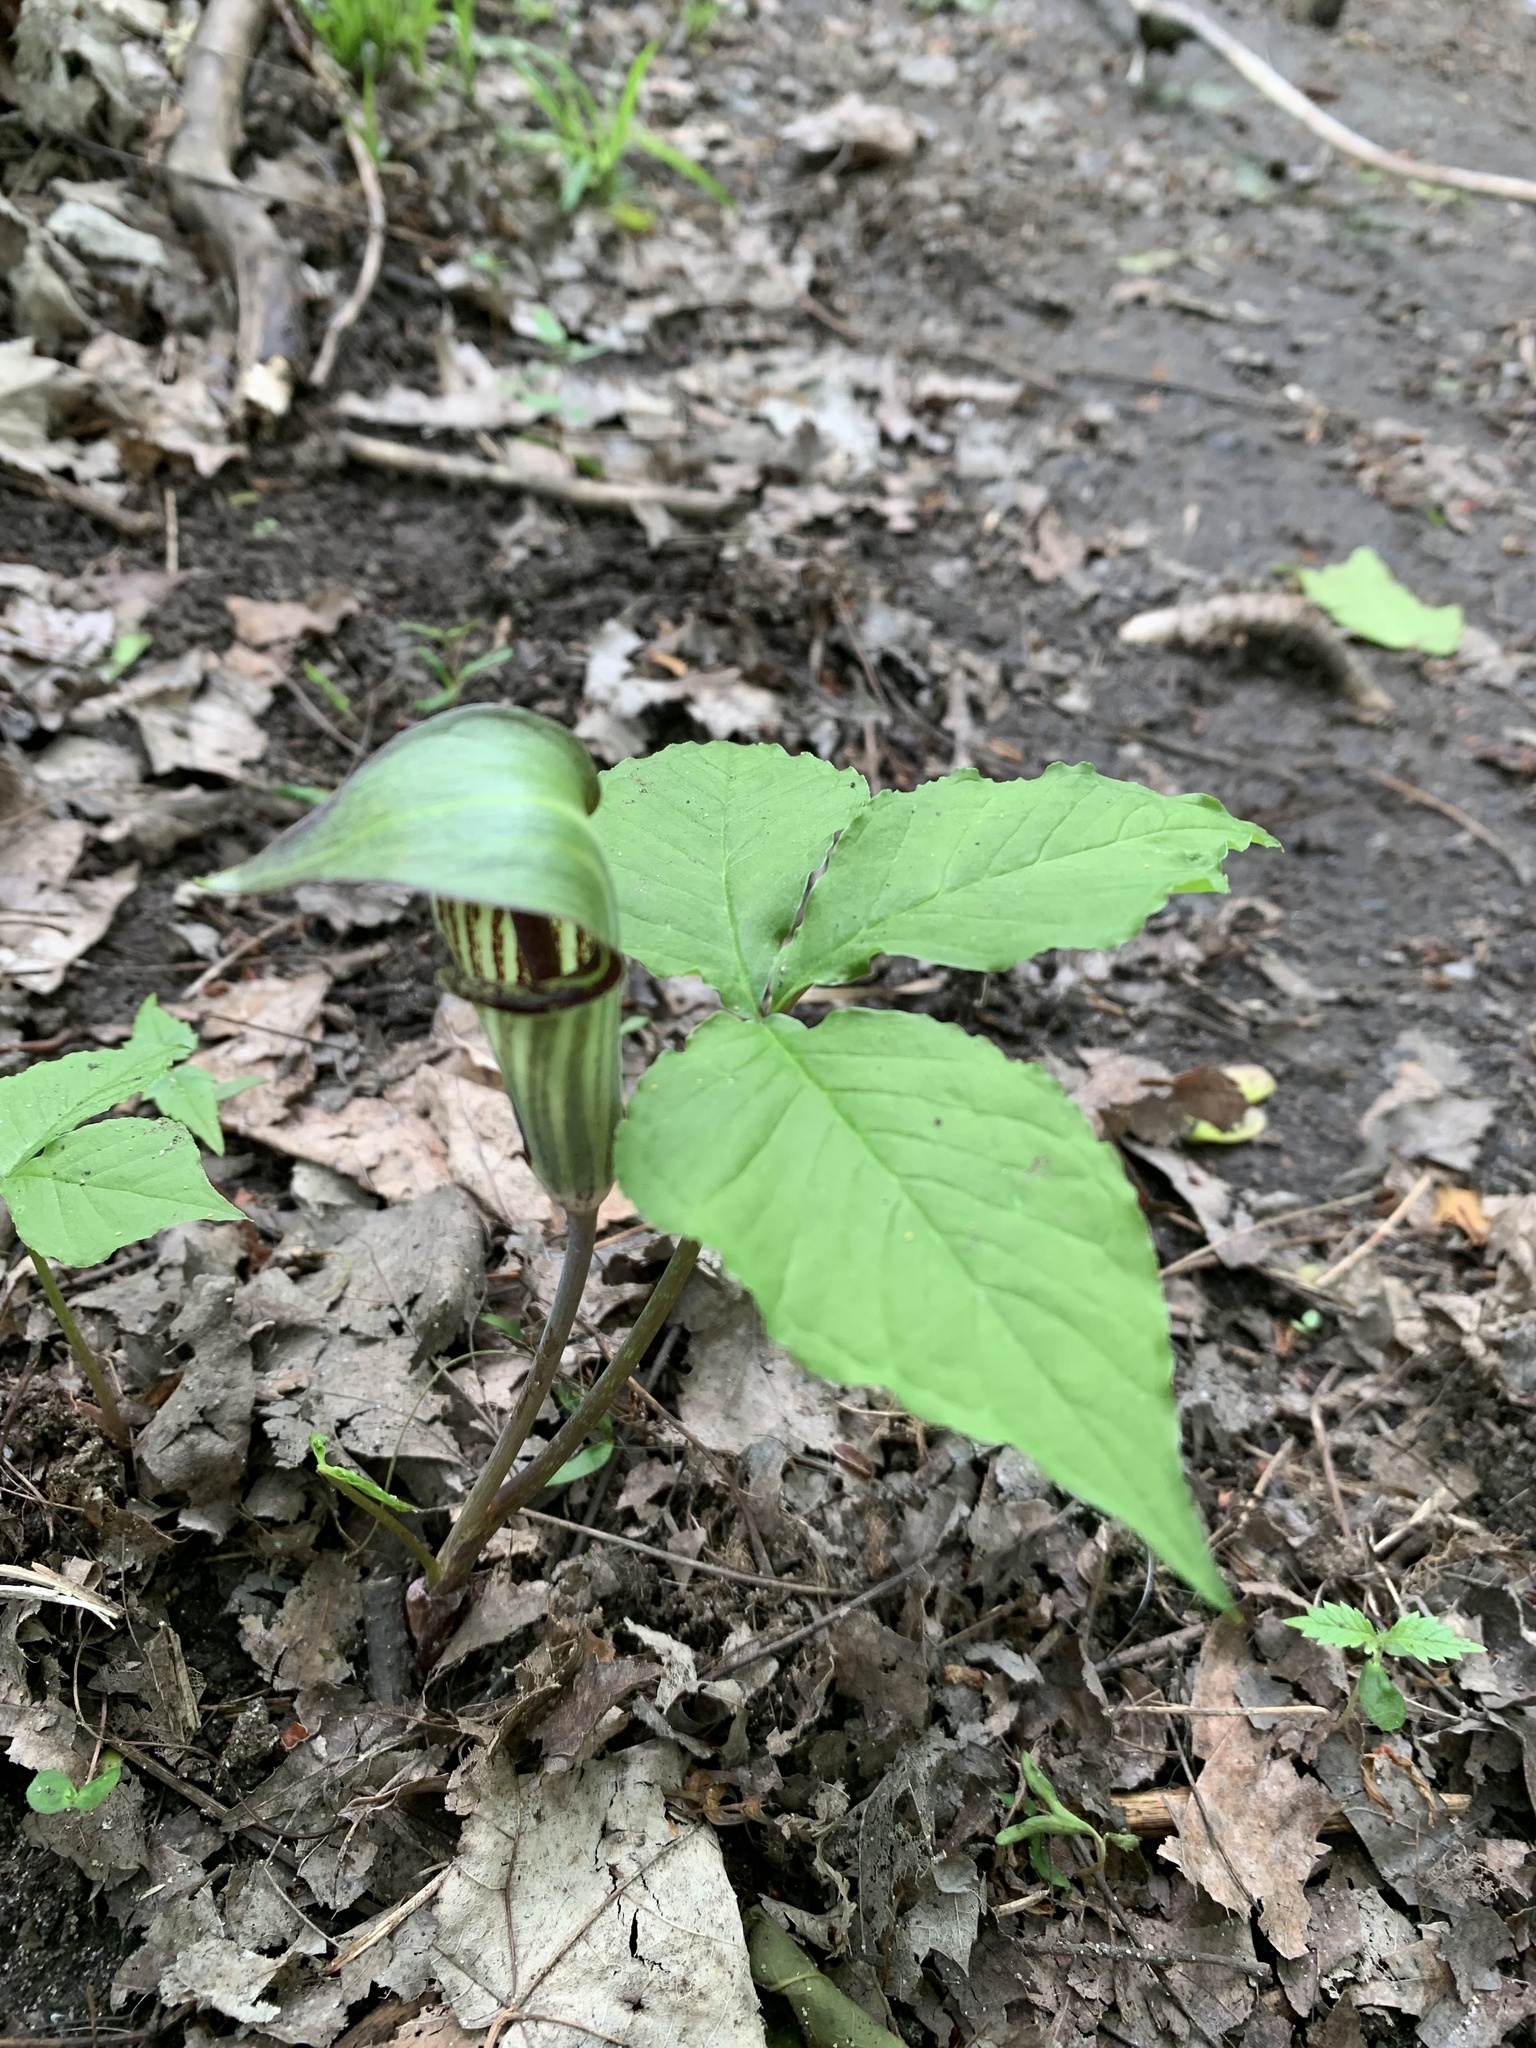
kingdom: Plantae
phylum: Tracheophyta
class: Liliopsida
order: Alismatales
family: Araceae
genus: Arisaema
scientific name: Arisaema triphyllum
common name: Jack-in-the-pulpit
